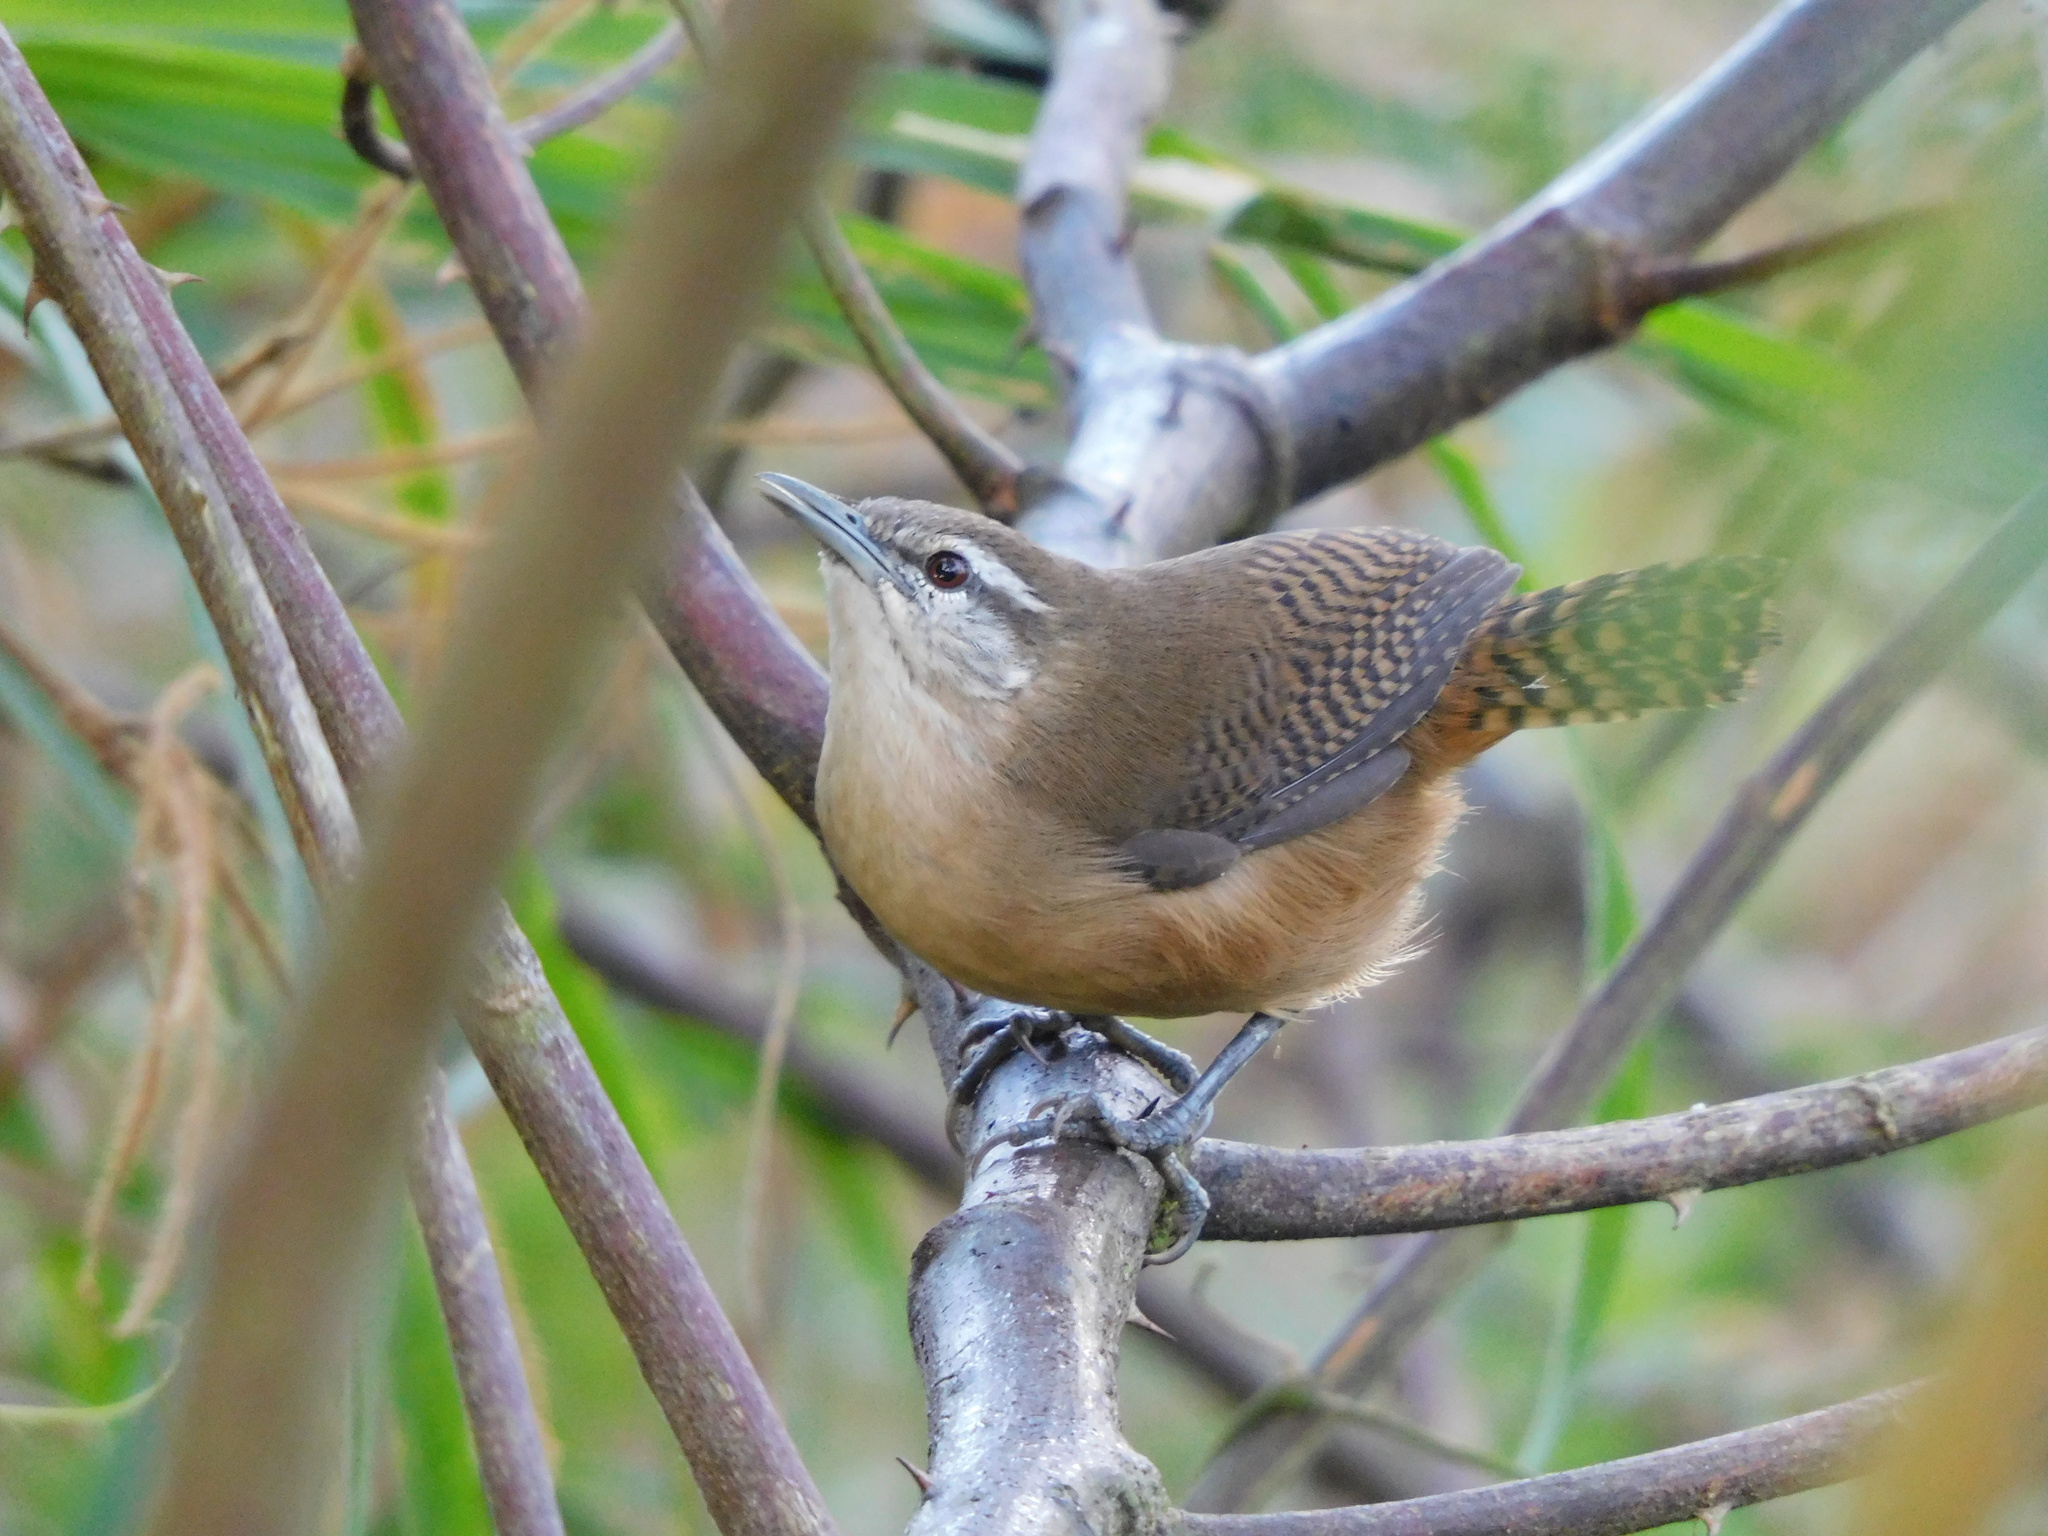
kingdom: Animalia
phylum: Chordata
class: Aves
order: Passeriformes
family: Troglodytidae
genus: Cantorchilus
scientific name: Cantorchilus leucotis
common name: Buff-breasted wren
